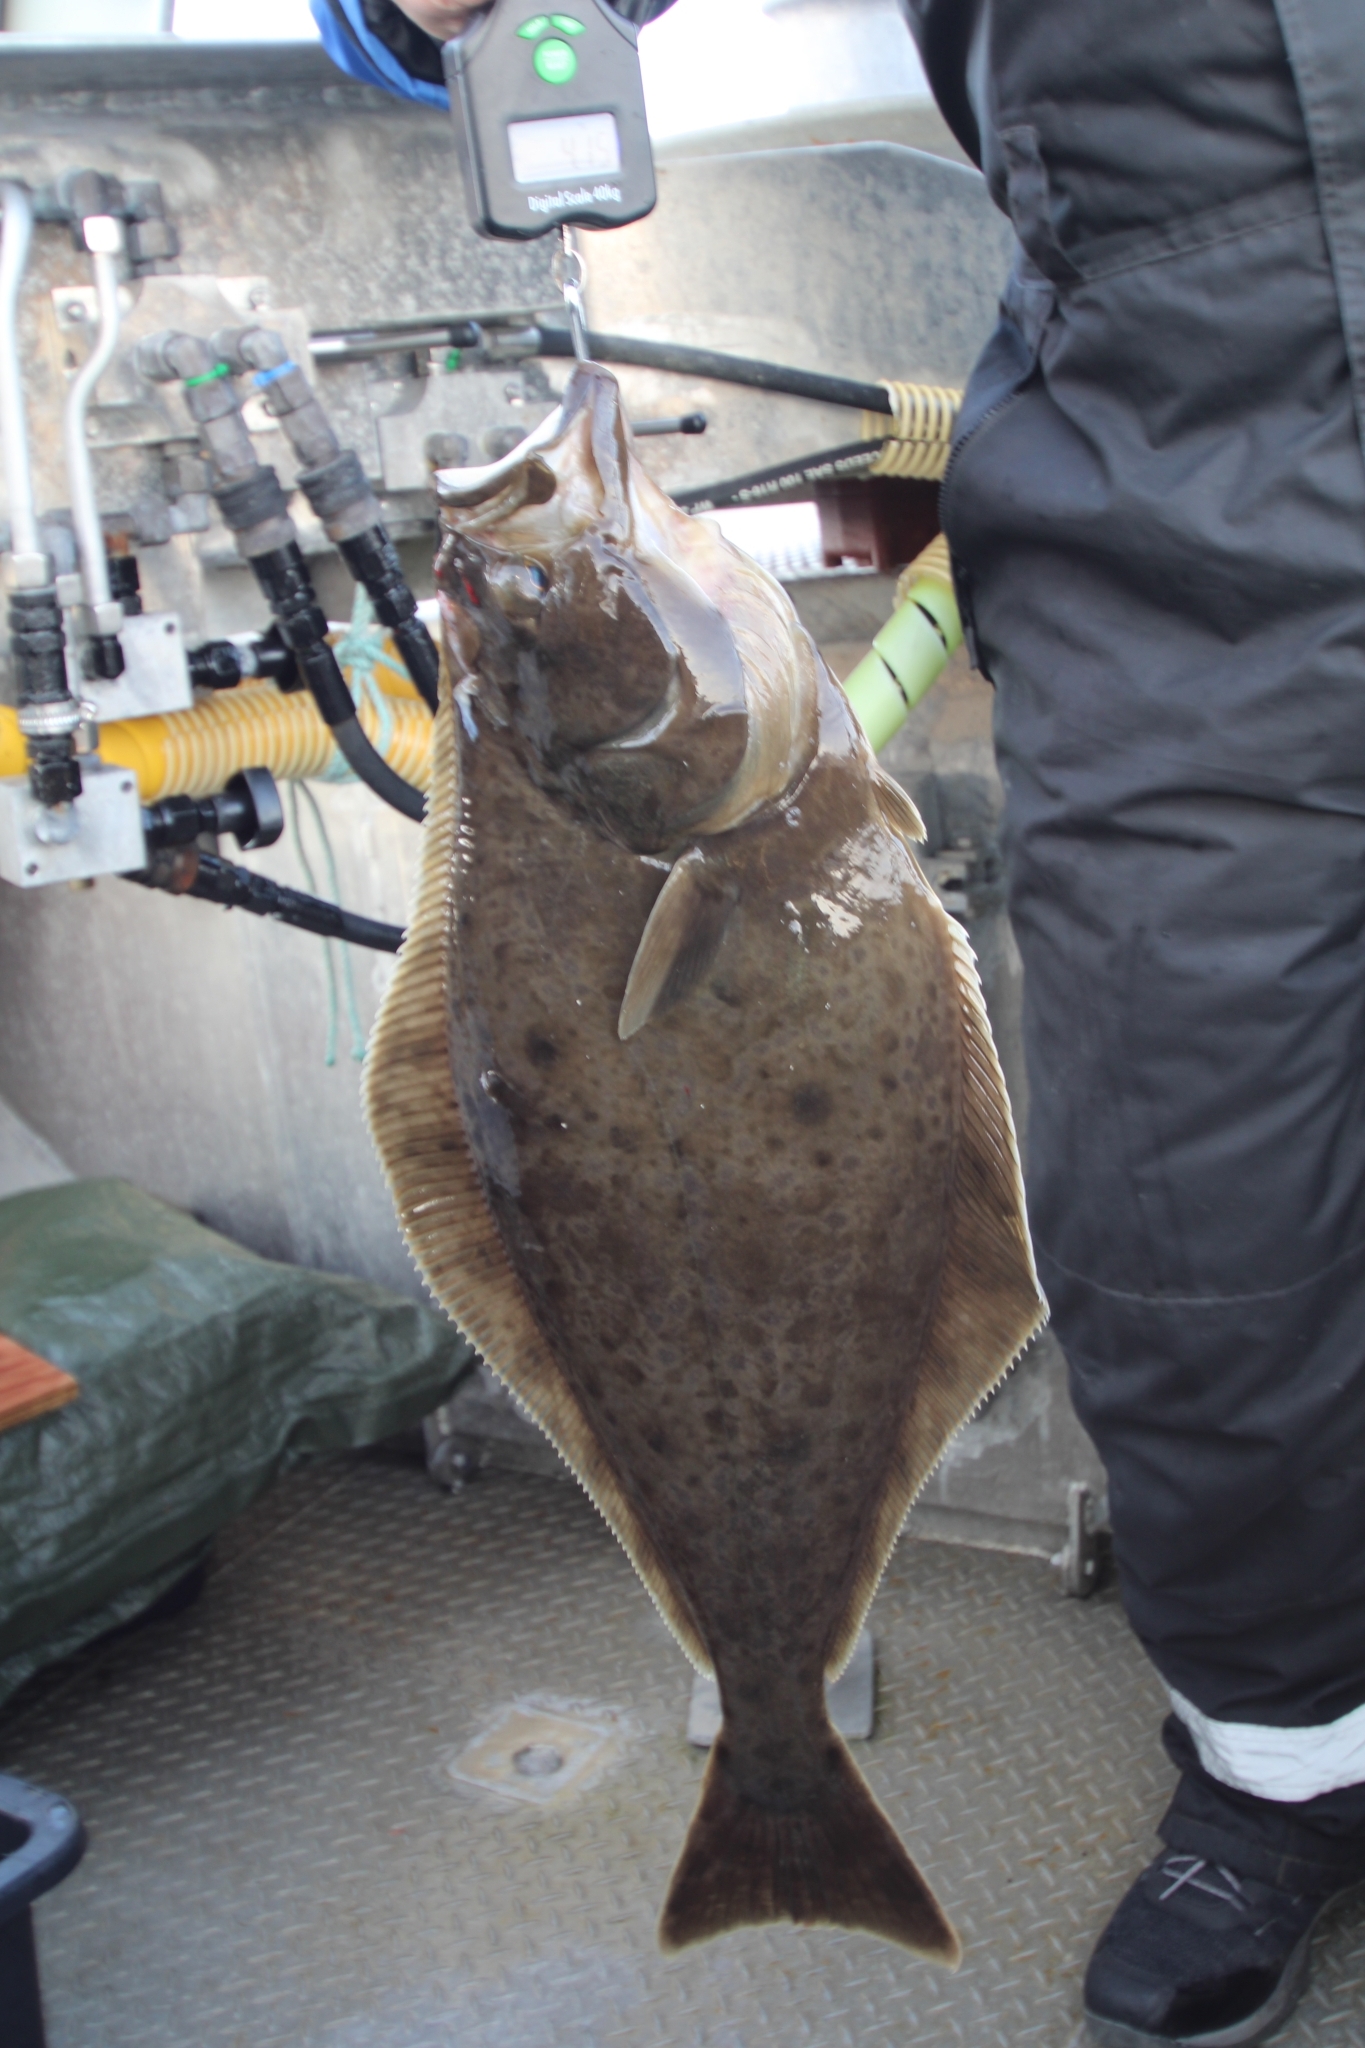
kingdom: Animalia
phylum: Chordata
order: Pleuronectiformes
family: Pleuronectidae
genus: Hippoglossus
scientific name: Hippoglossus hippoglossus
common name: Atlantic halibut
